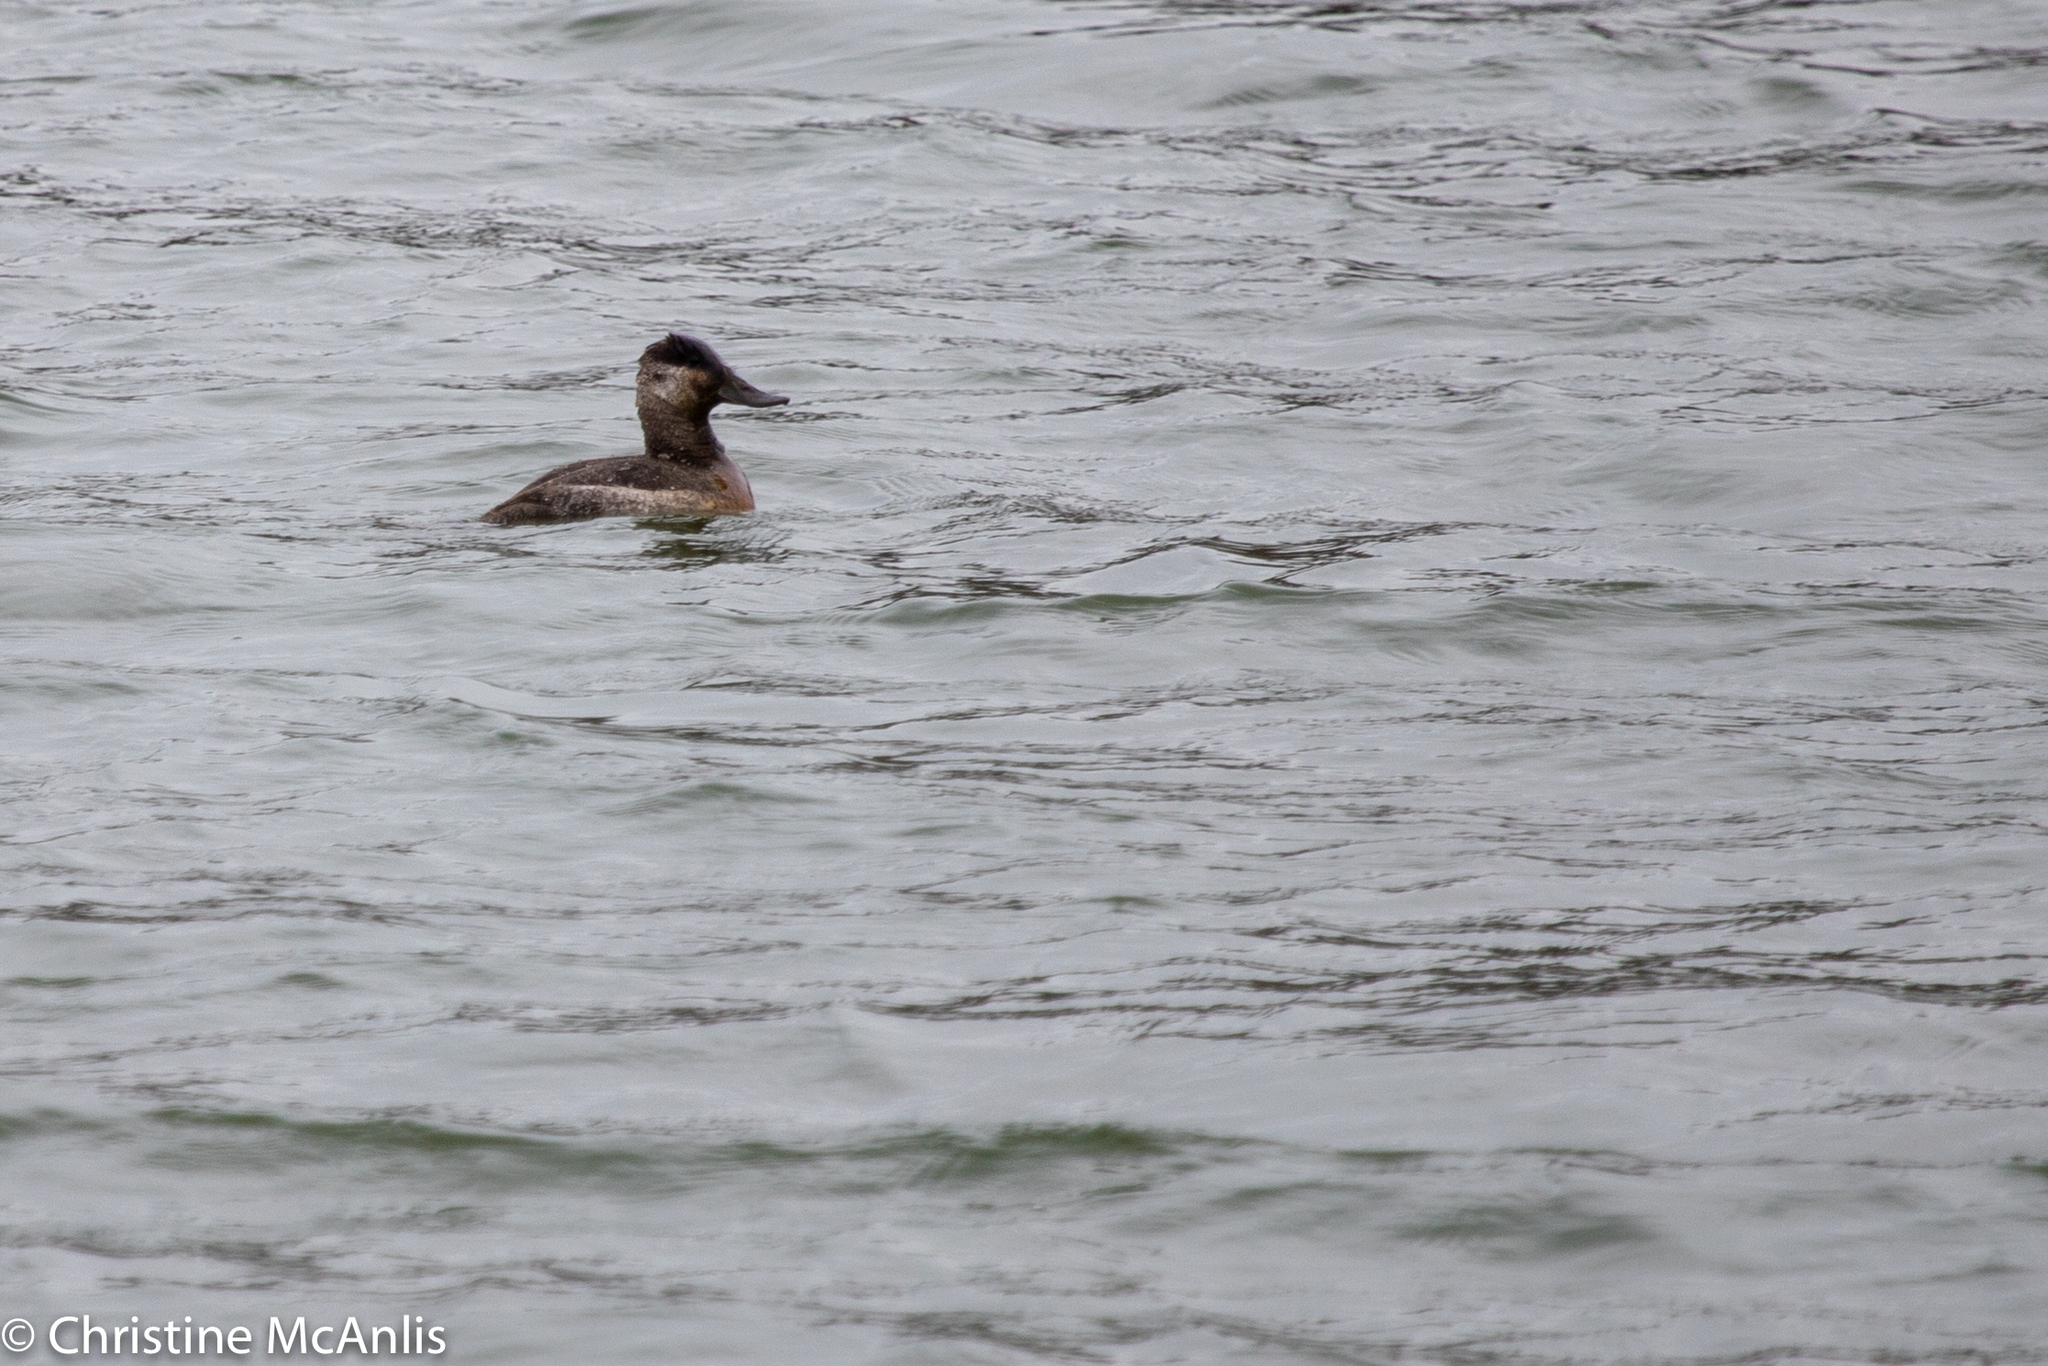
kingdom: Animalia
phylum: Chordata
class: Aves
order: Anseriformes
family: Anatidae
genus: Oxyura
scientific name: Oxyura jamaicensis
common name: Ruddy duck
